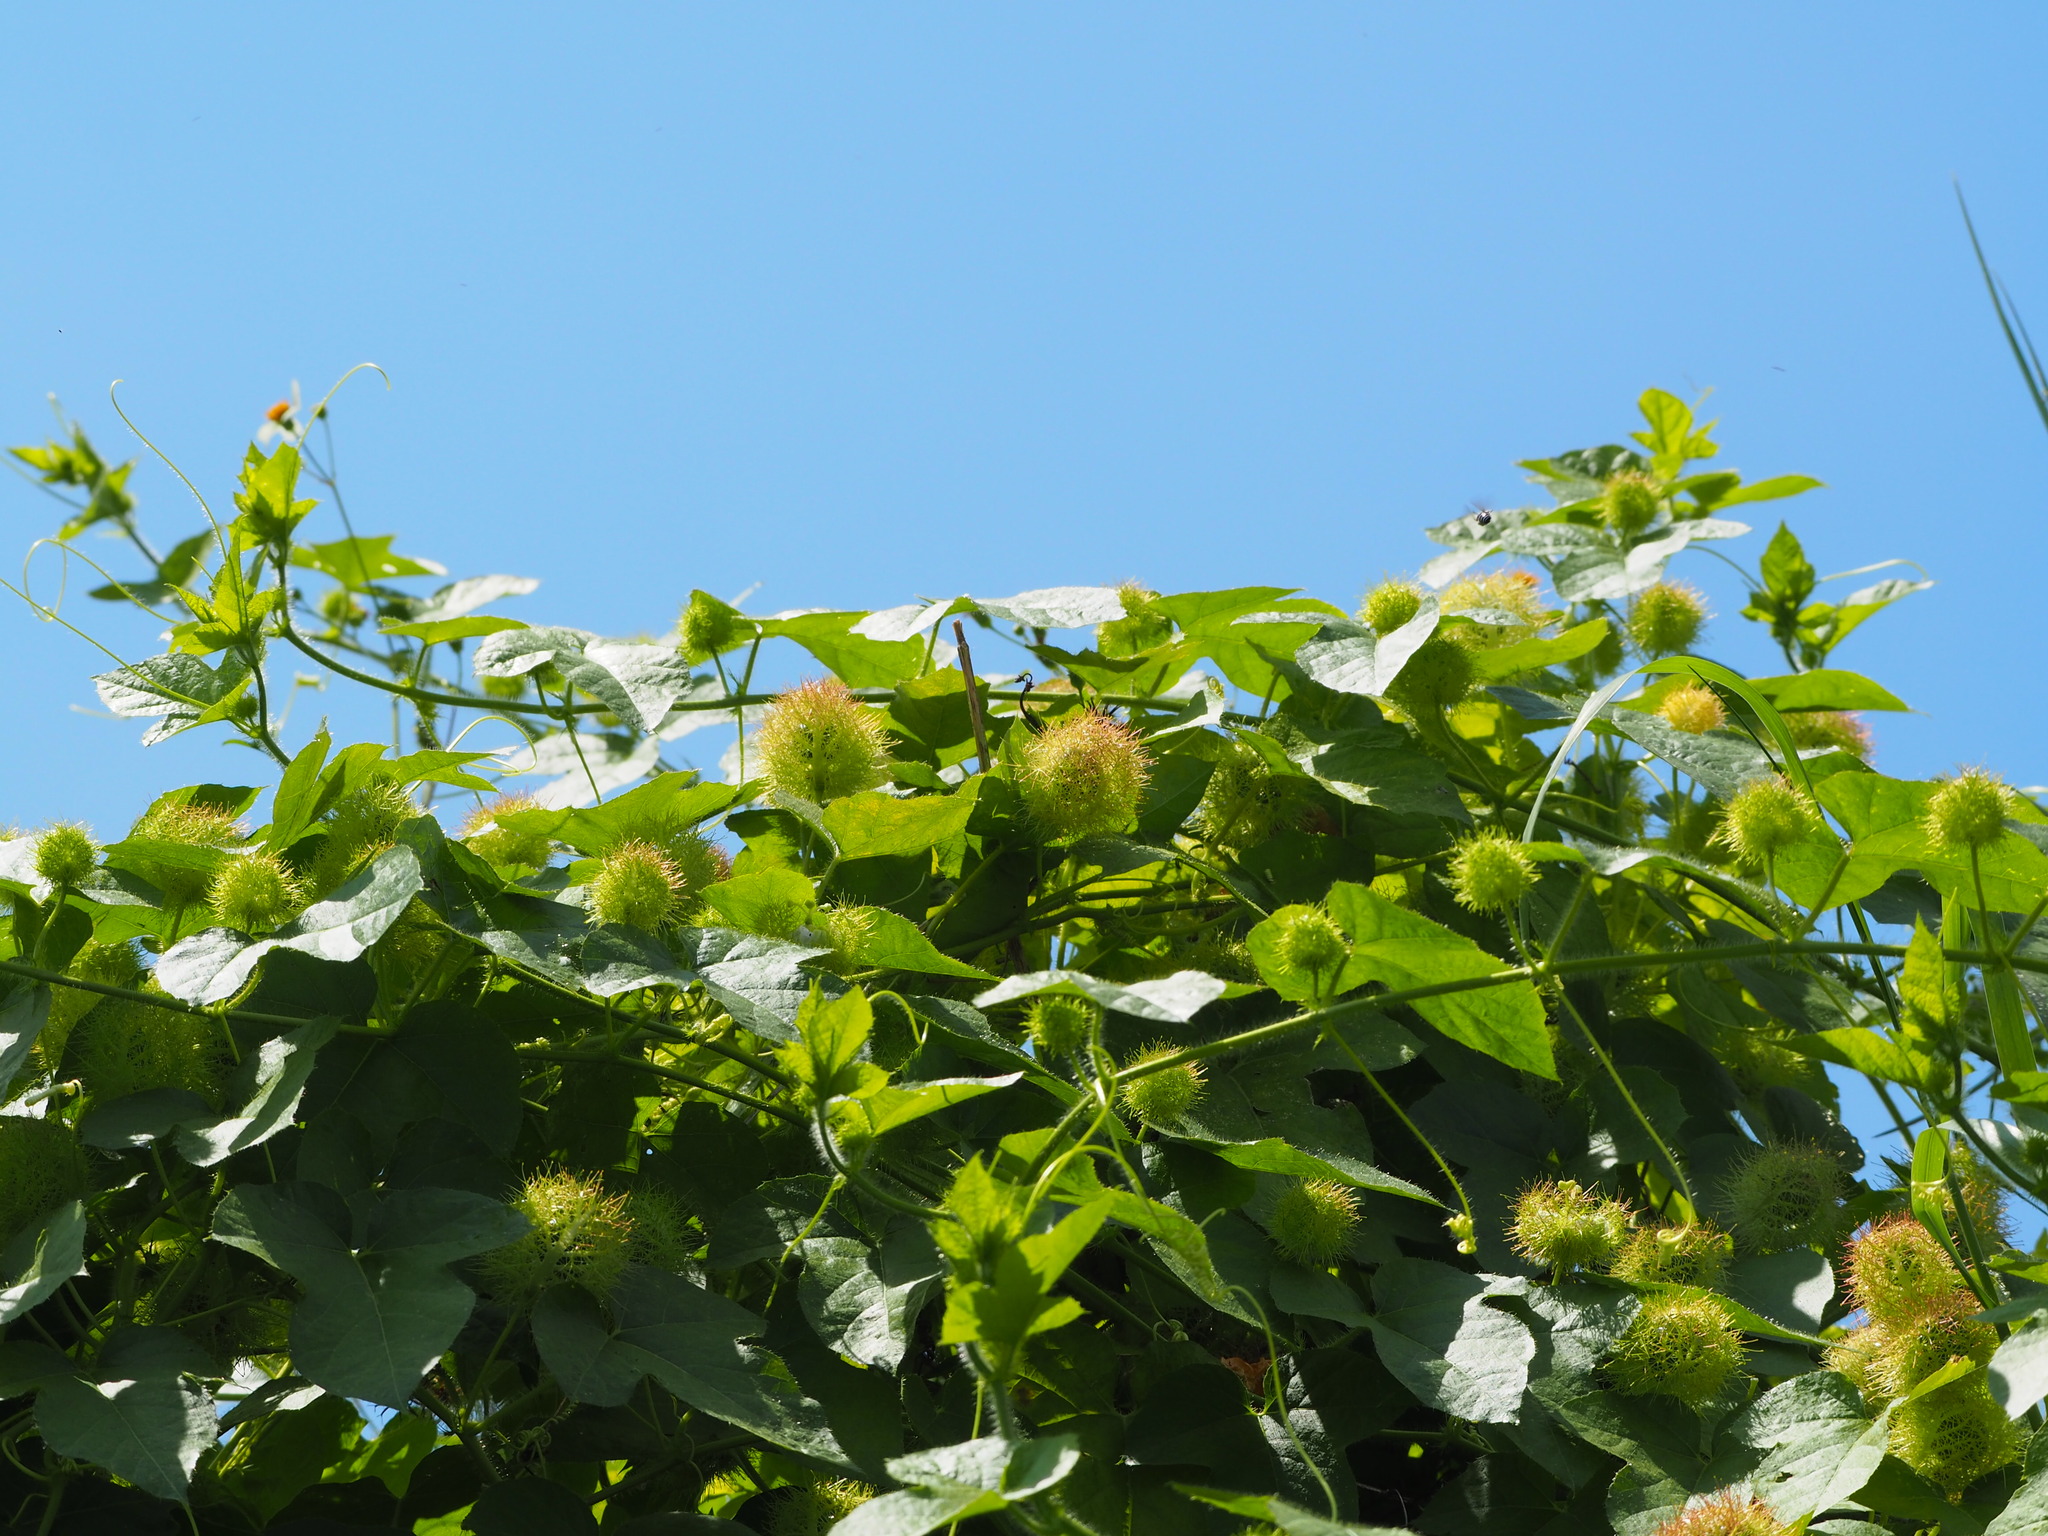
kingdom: Plantae
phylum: Tracheophyta
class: Magnoliopsida
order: Malpighiales
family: Passifloraceae
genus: Passiflora
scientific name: Passiflora vesicaria
